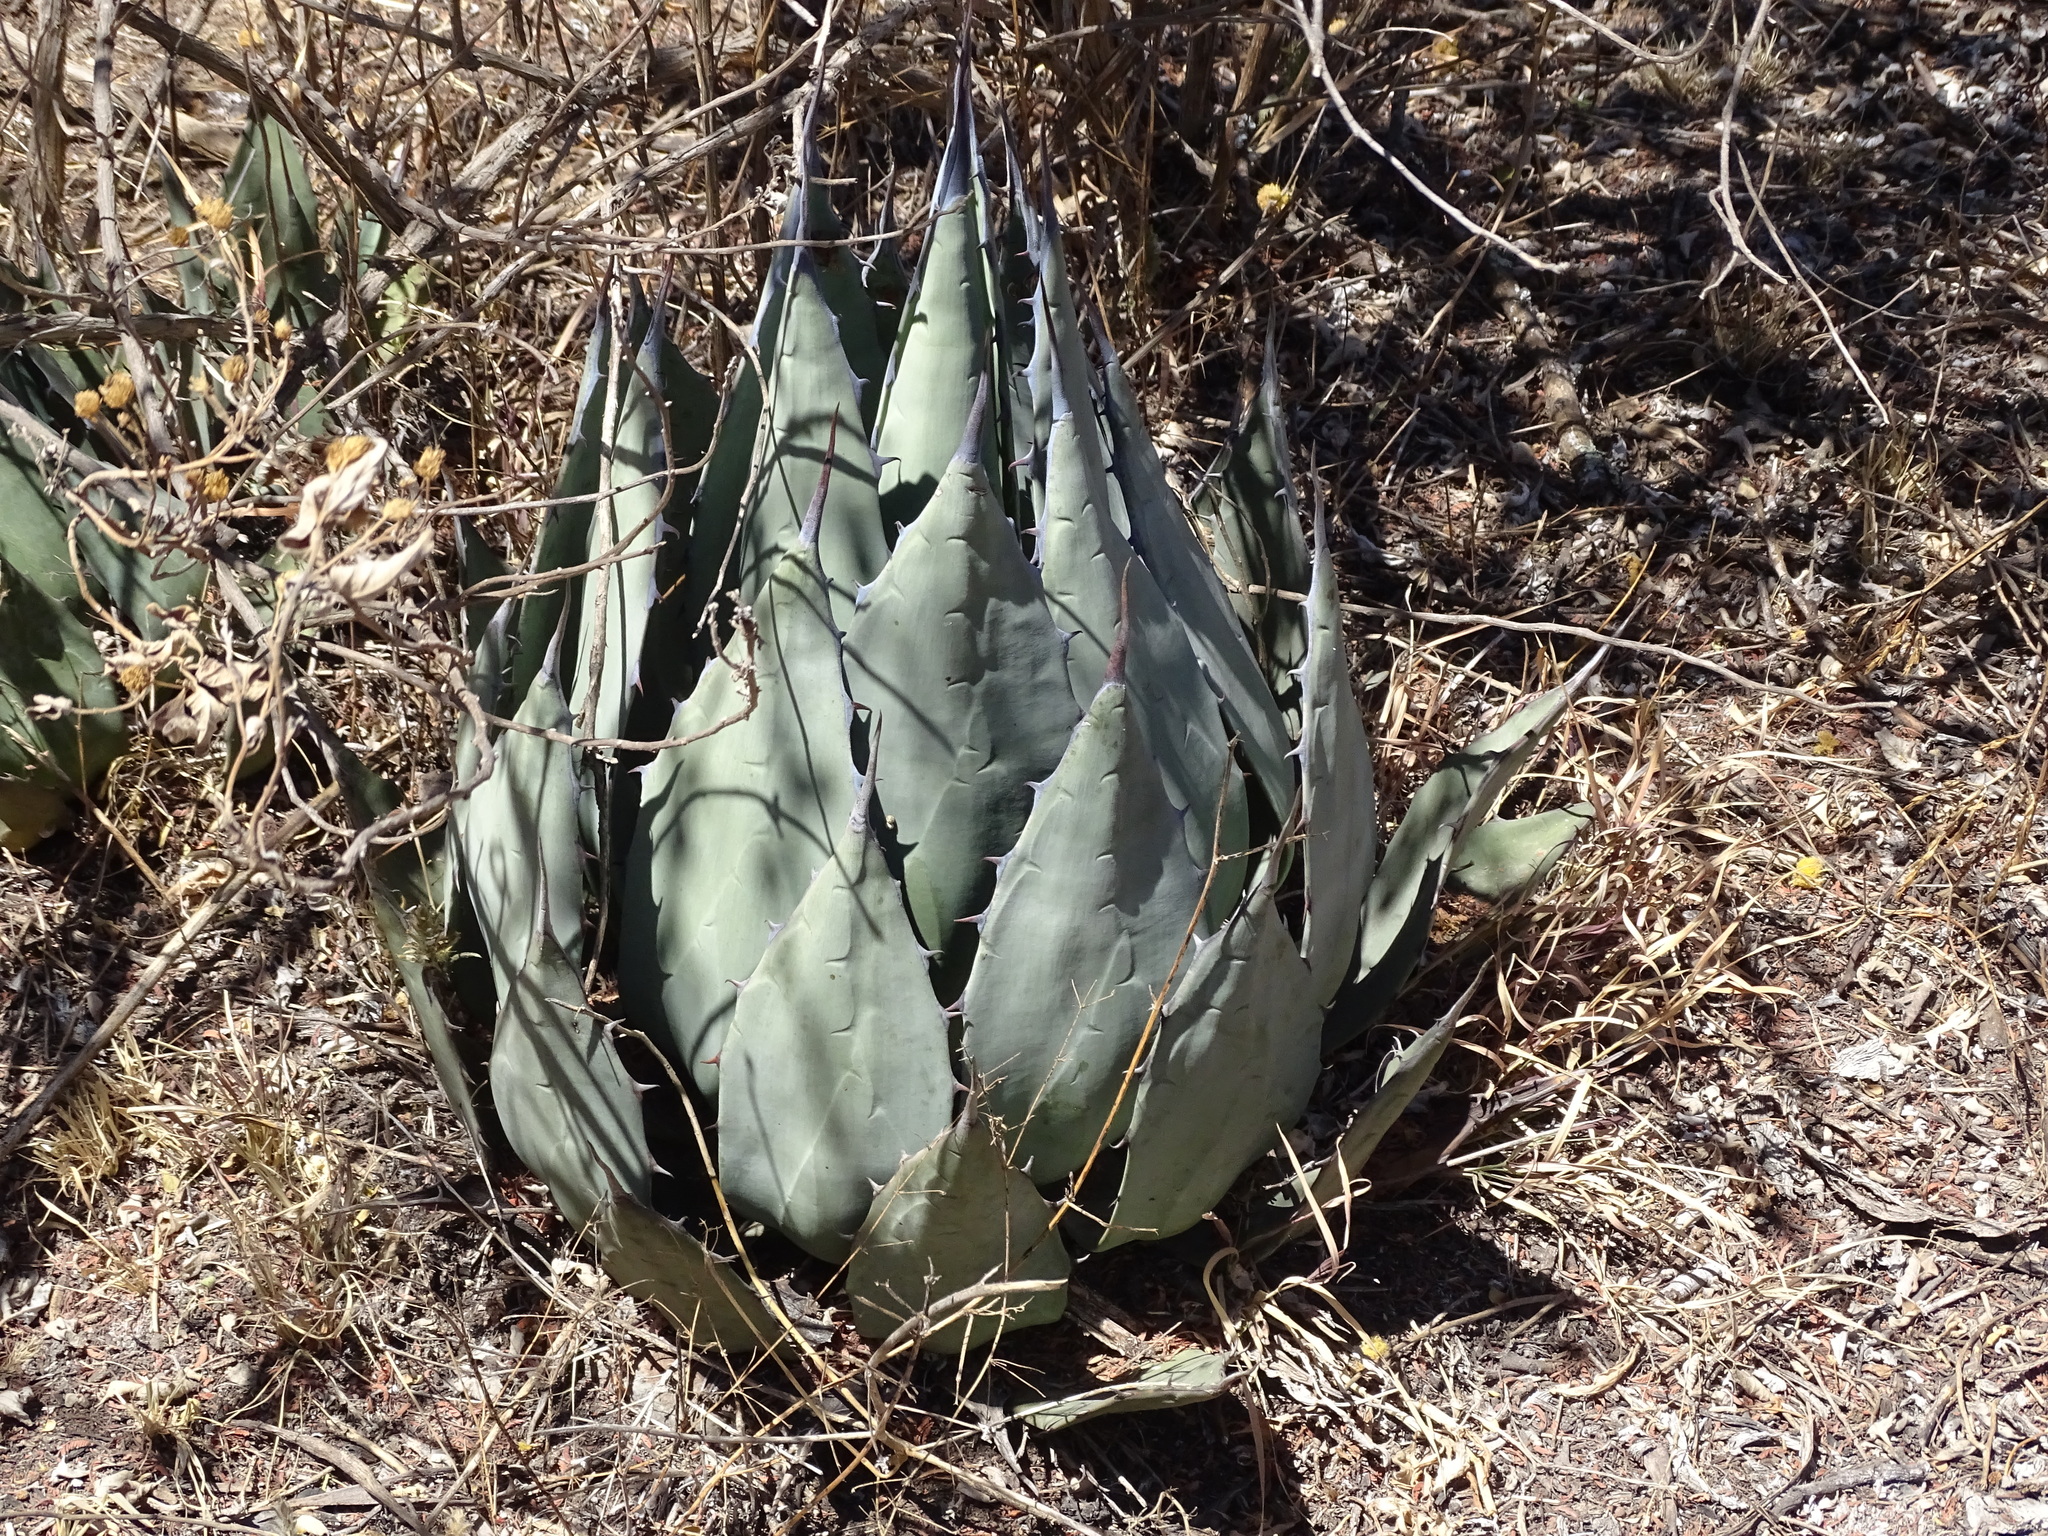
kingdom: Plantae
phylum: Tracheophyta
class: Liliopsida
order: Asparagales
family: Asparagaceae
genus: Agave
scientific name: Agave applanata
